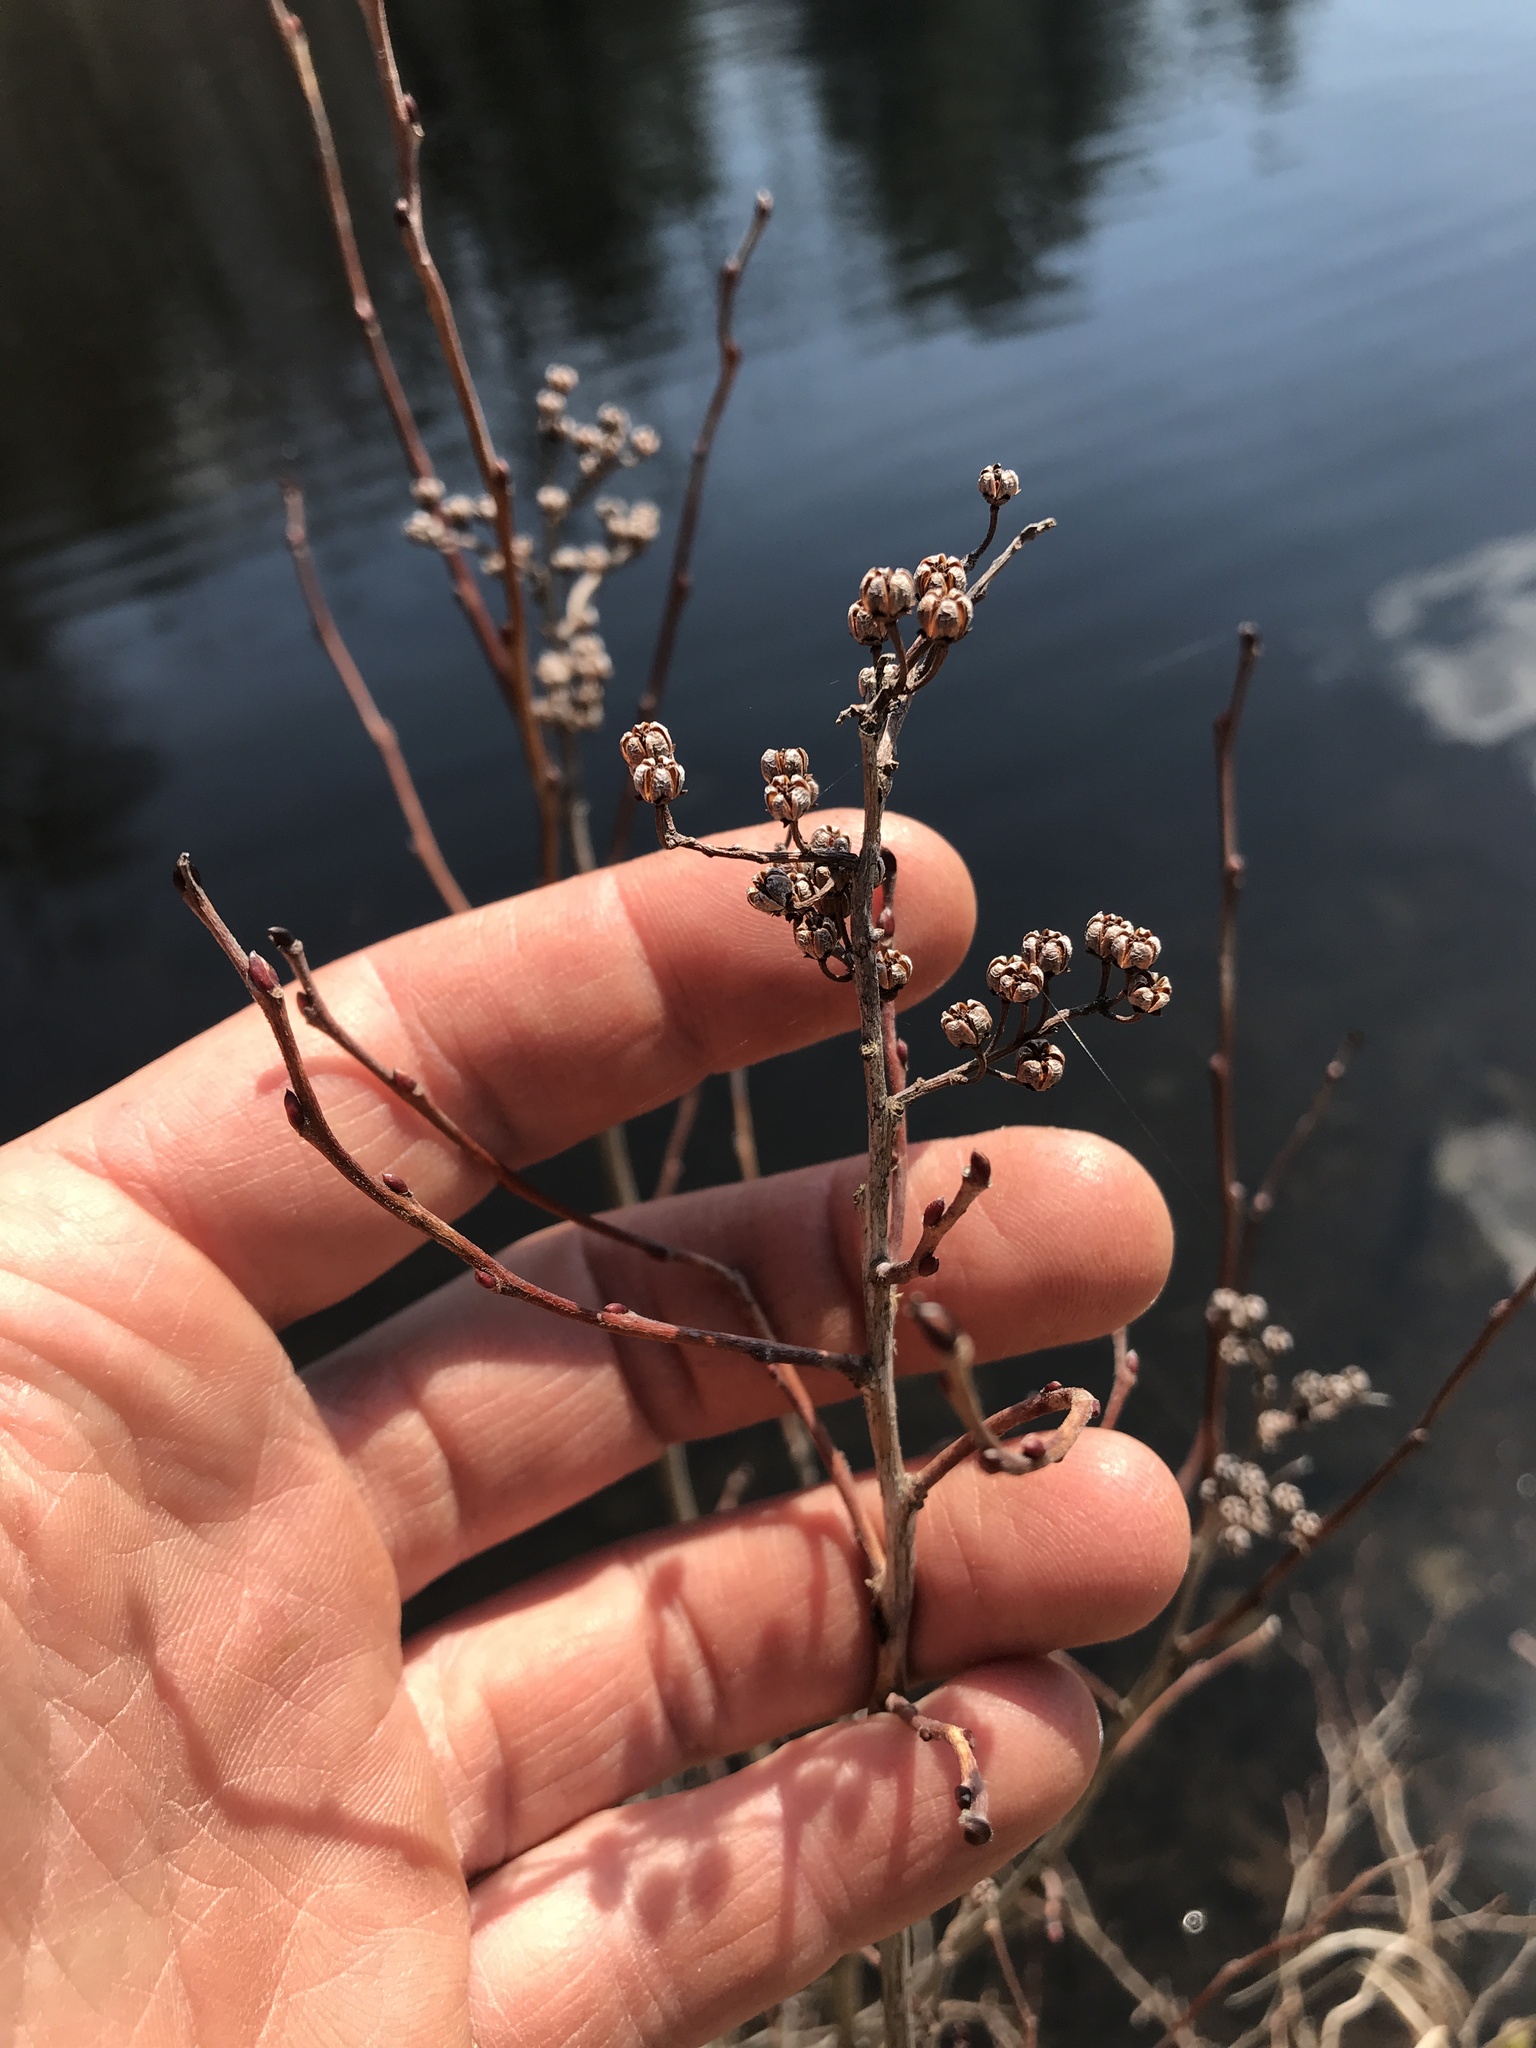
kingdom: Plantae
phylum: Tracheophyta
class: Magnoliopsida
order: Ericales
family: Ericaceae
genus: Lyonia
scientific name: Lyonia ligustrina
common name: Maleberry
